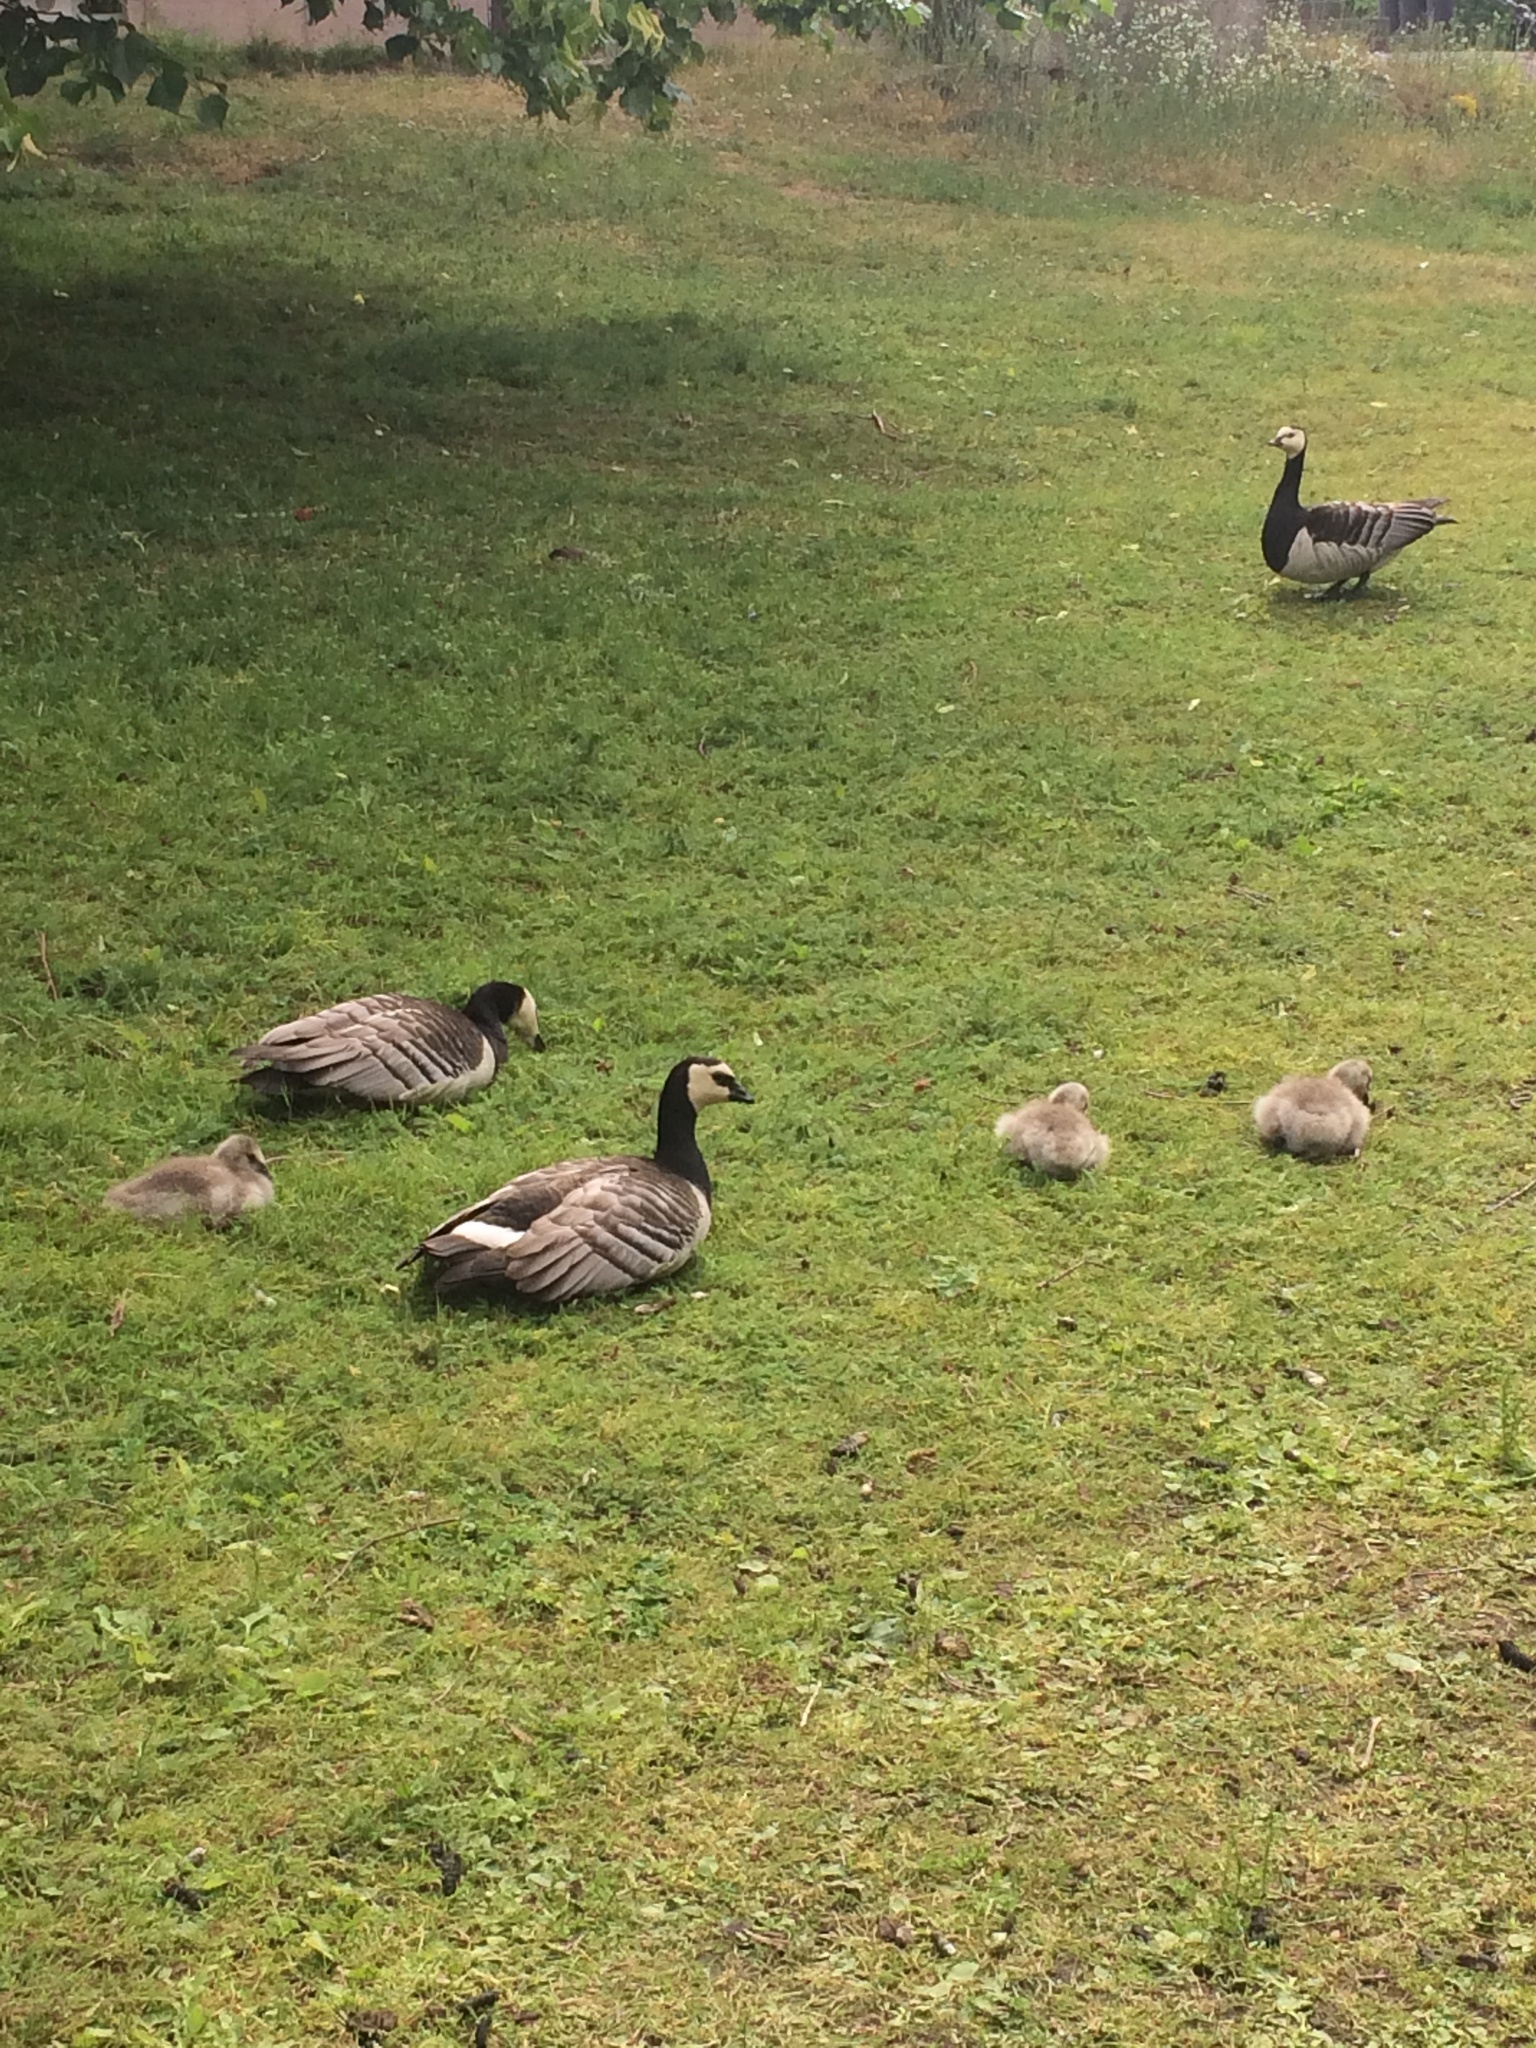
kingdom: Animalia
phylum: Chordata
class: Aves
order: Anseriformes
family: Anatidae
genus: Branta
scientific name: Branta leucopsis
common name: Barnacle goose
